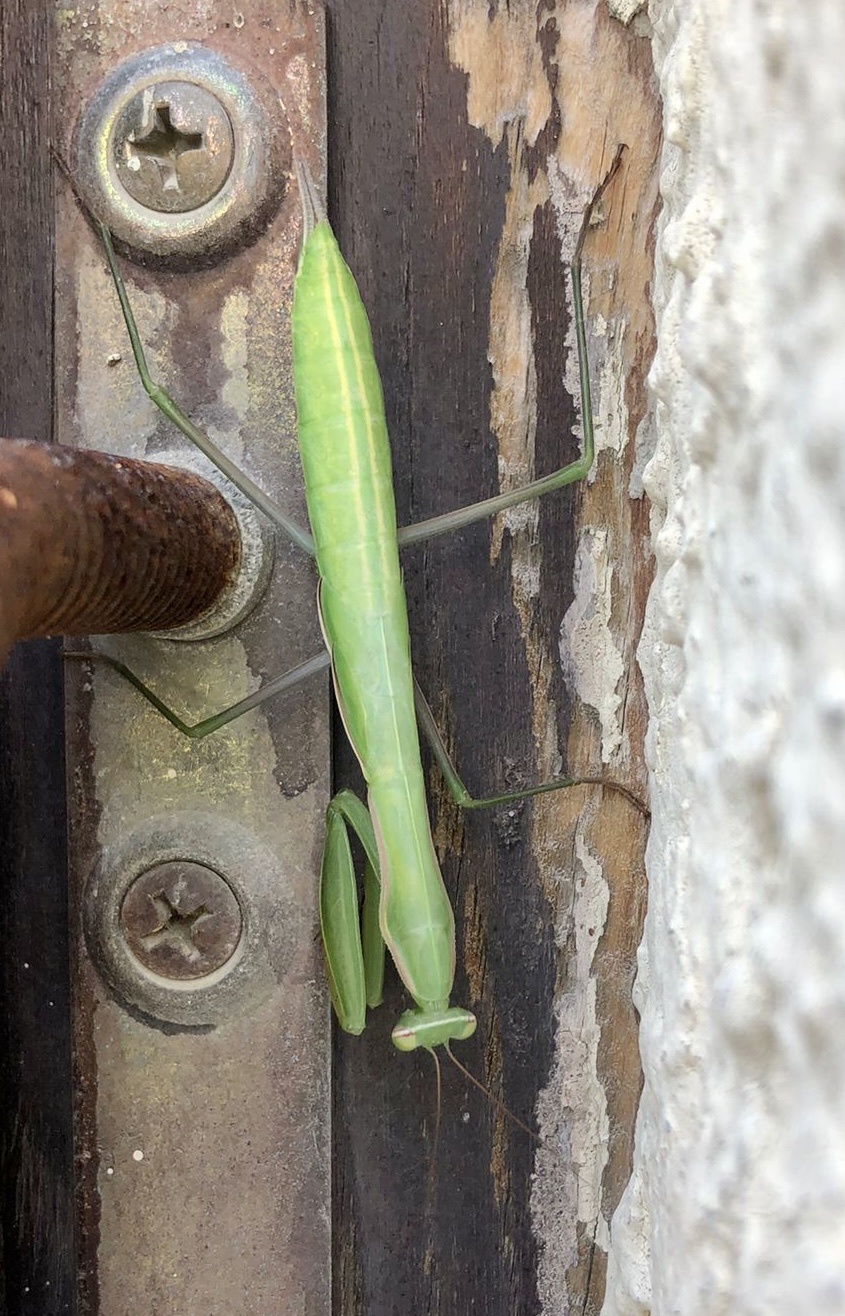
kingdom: Animalia
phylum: Arthropoda
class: Insecta
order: Mantodea
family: Mantidae
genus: Mantis
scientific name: Mantis religiosa
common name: Praying mantis
